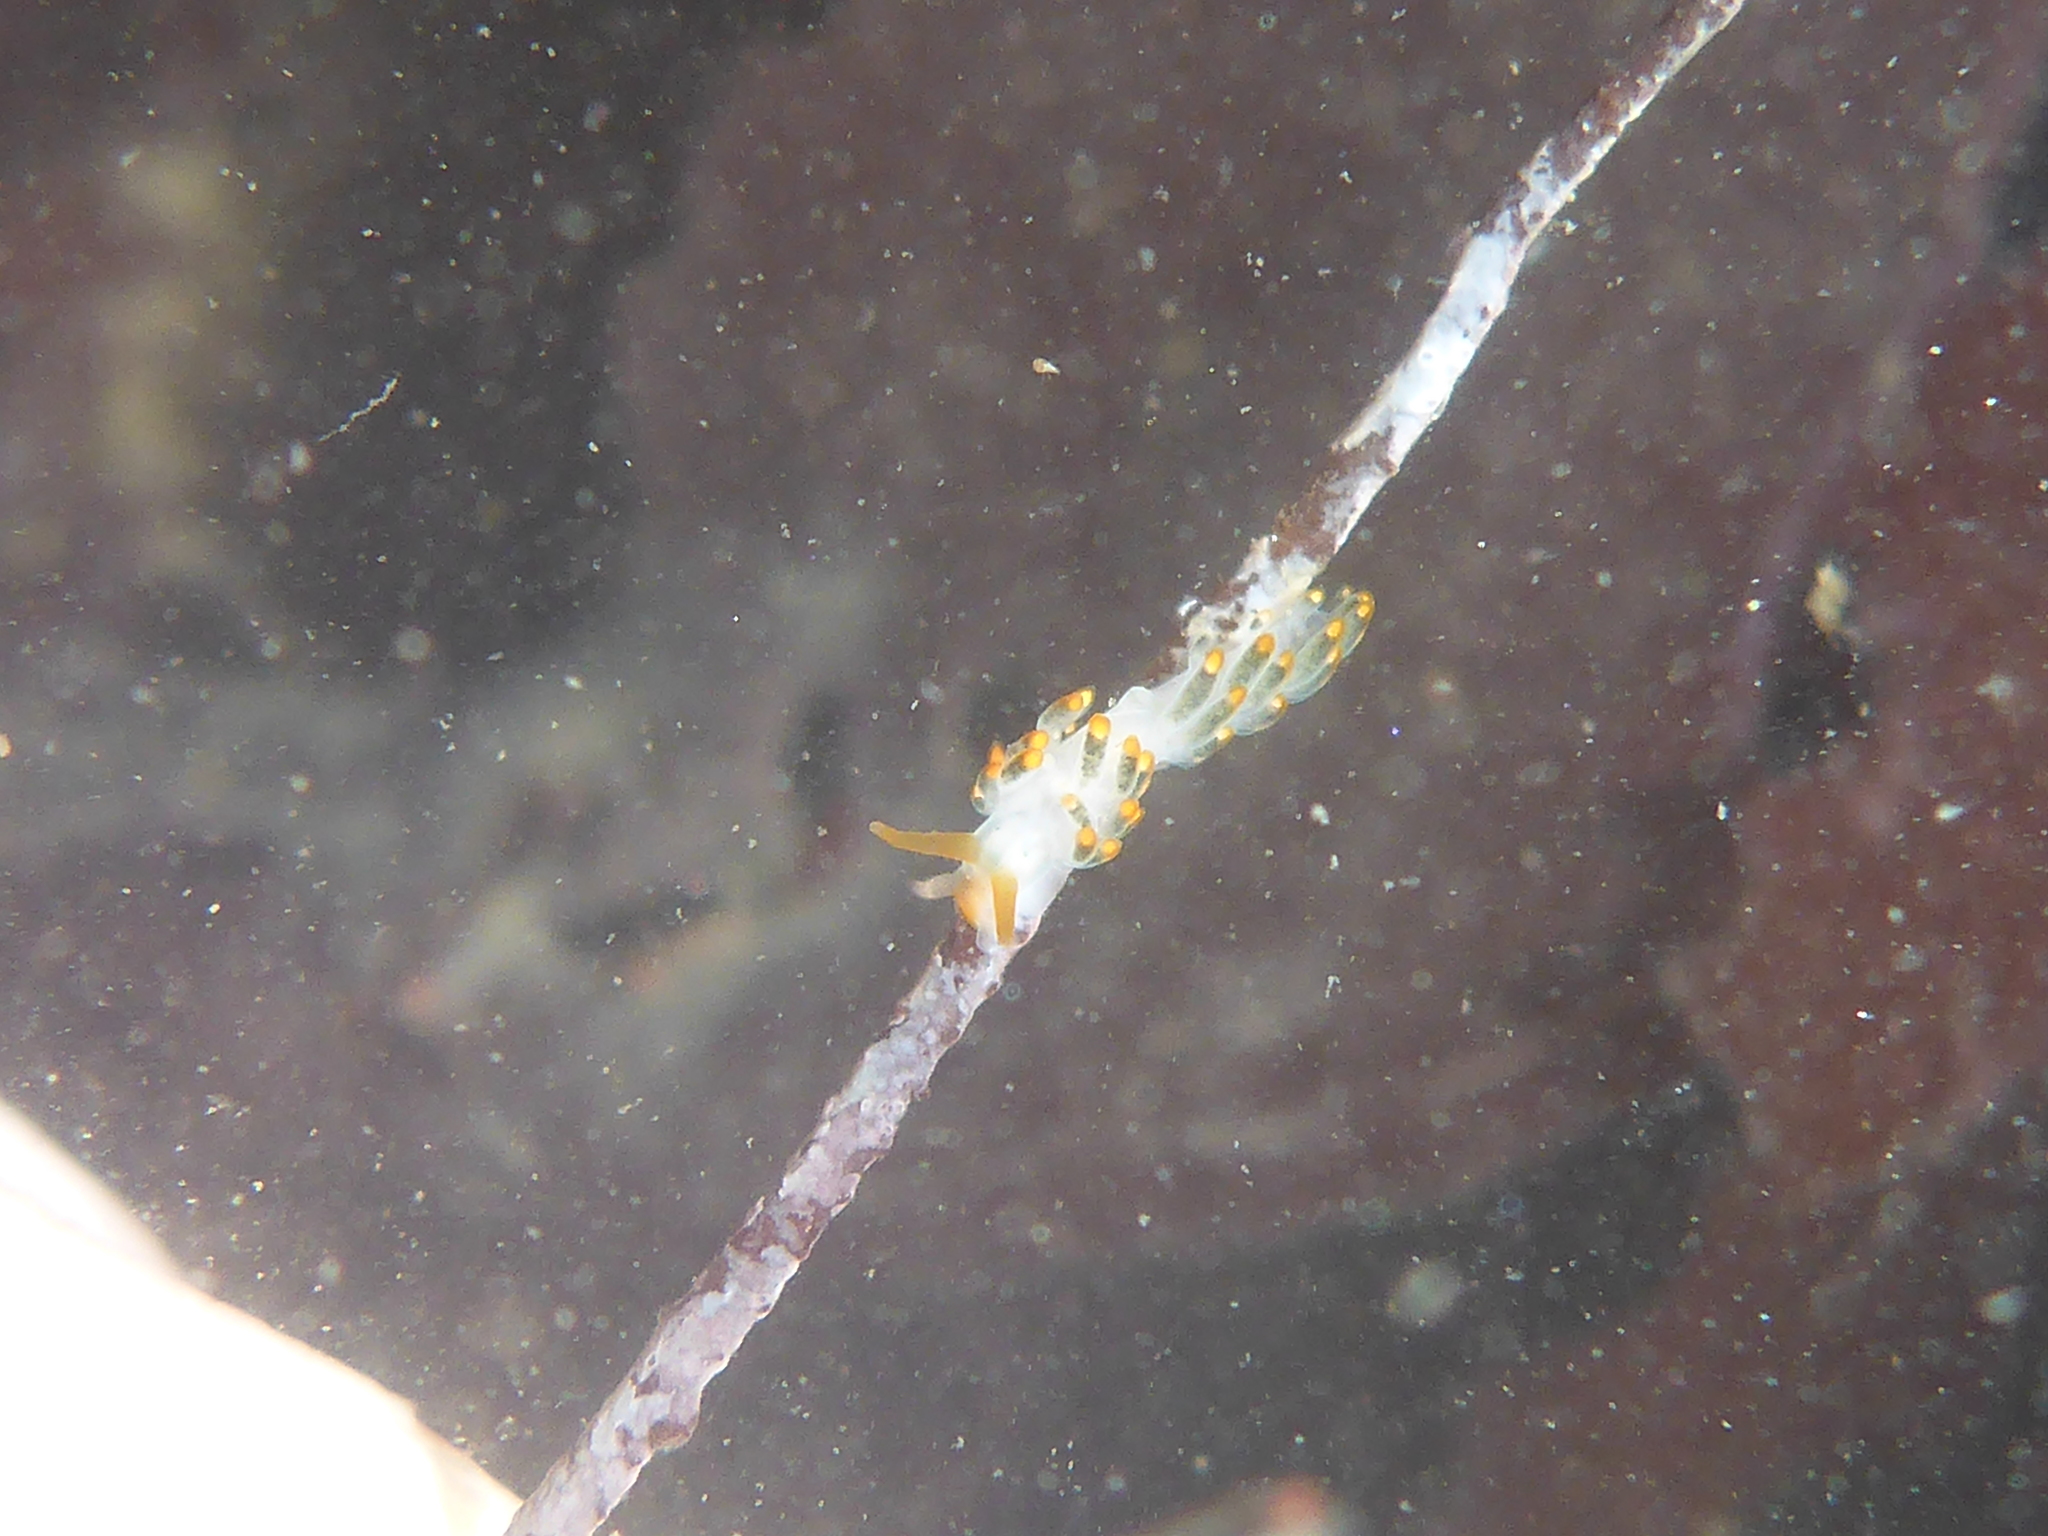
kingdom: Animalia
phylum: Mollusca
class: Gastropoda
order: Nudibranchia
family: Trinchesiidae
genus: Diaphoreolis
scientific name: Diaphoreolis lagunae
